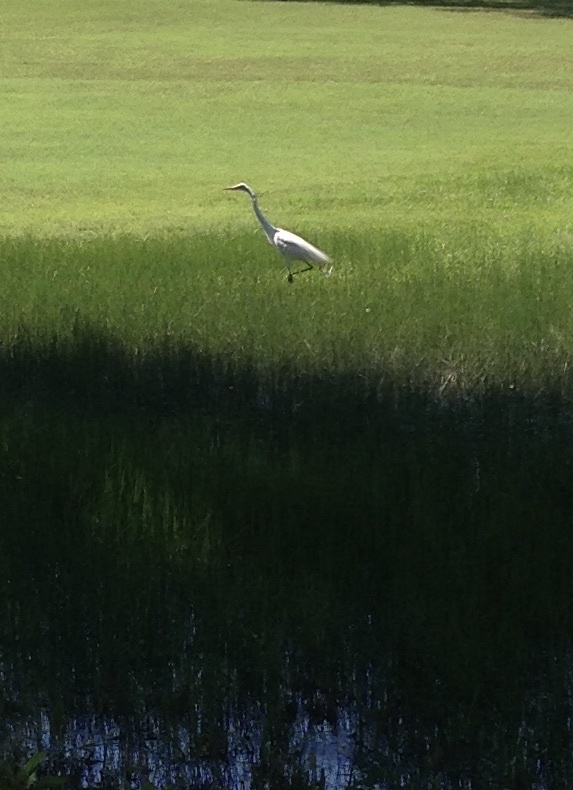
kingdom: Animalia
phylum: Chordata
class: Aves
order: Pelecaniformes
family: Ardeidae
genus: Ardea
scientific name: Ardea alba
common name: Great egret
